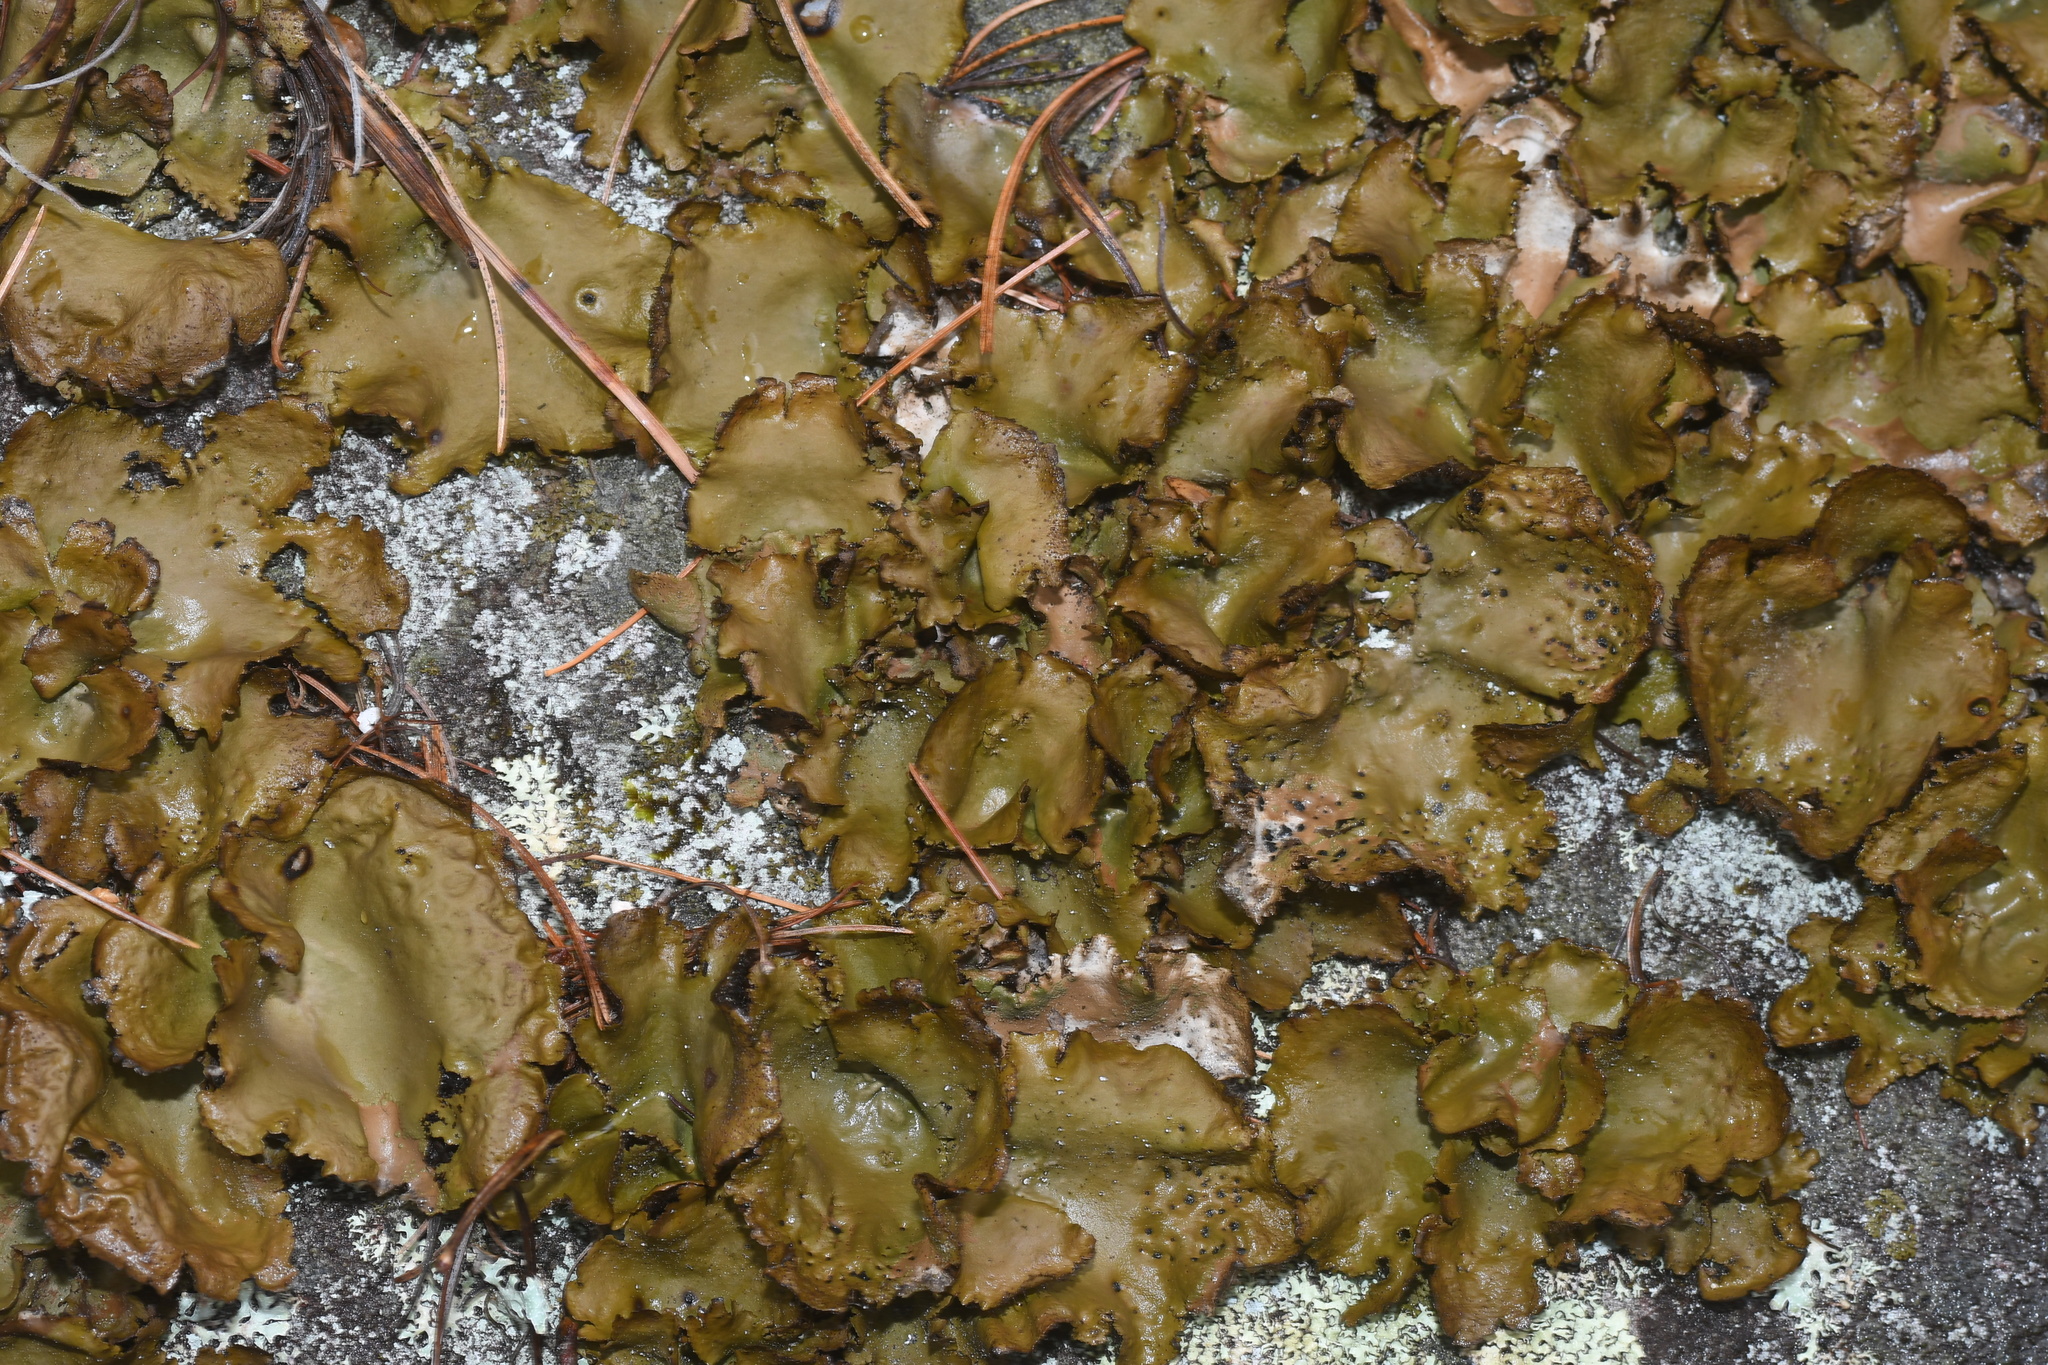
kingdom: Fungi
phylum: Ascomycota
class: Lecanoromycetes
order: Umbilicariales
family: Umbilicariaceae
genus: Umbilicaria
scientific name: Umbilicaria mammulata
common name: Smooth rock tripe
